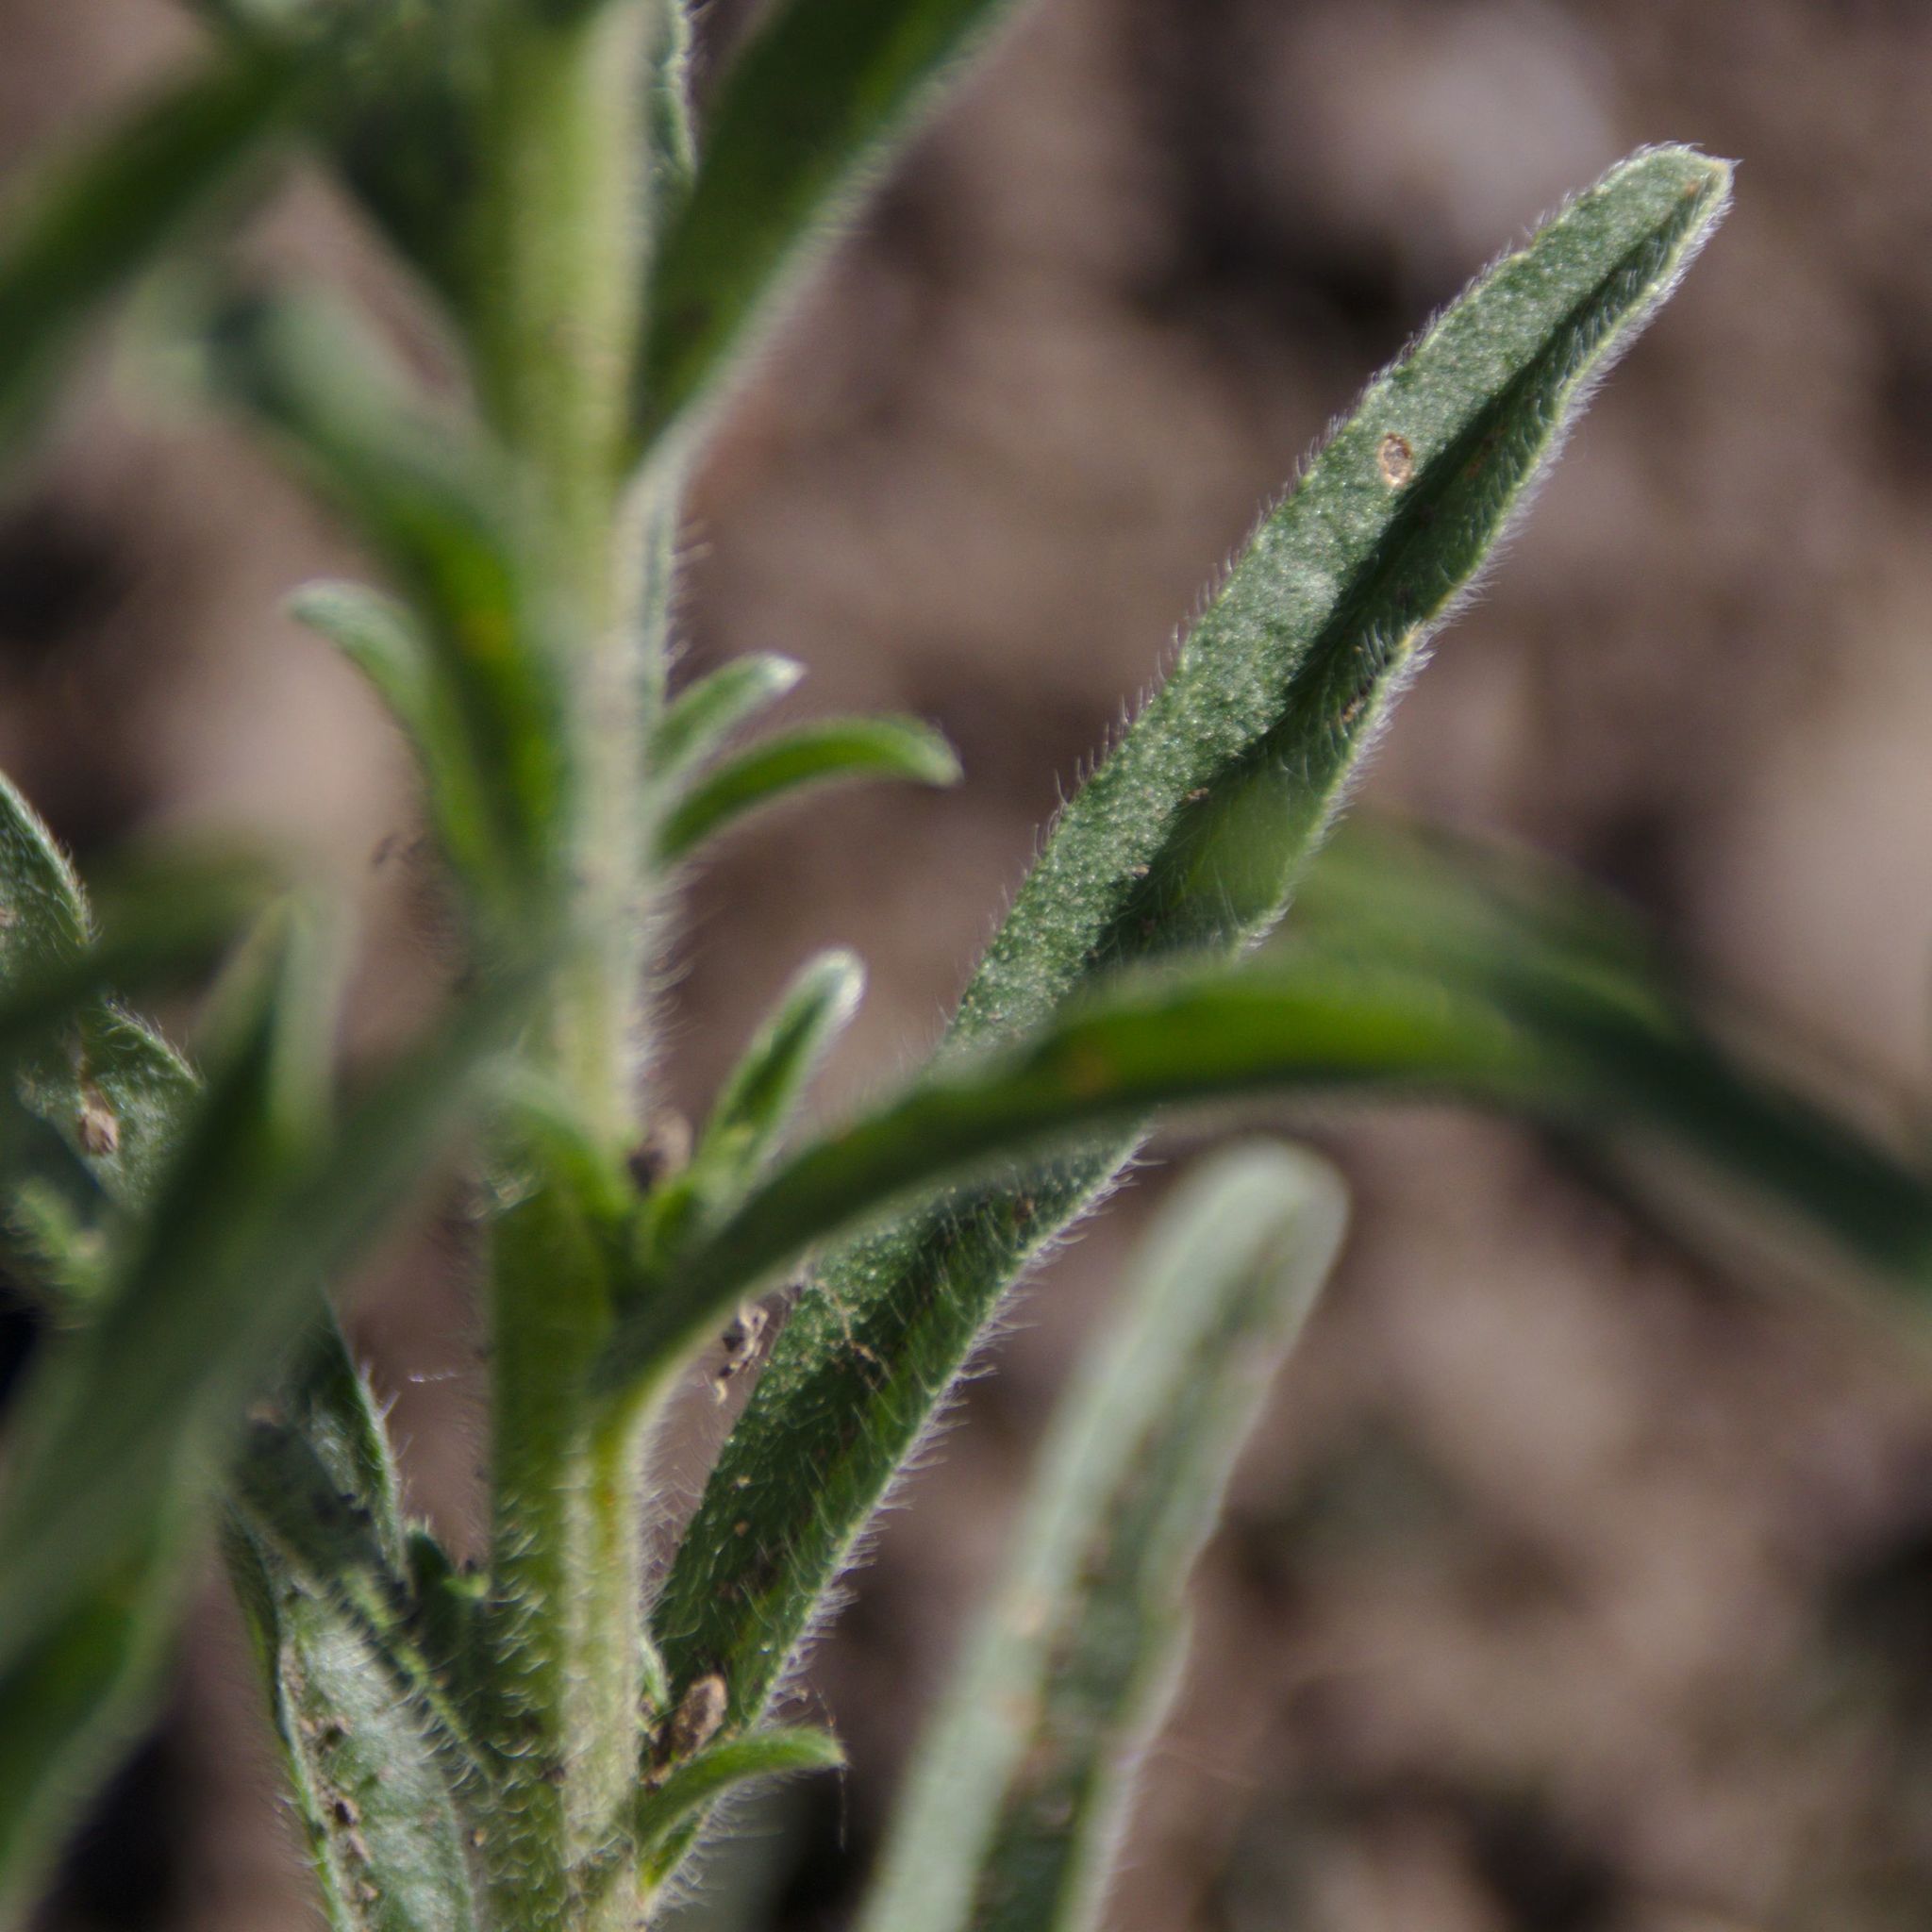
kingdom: Plantae
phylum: Tracheophyta
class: Magnoliopsida
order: Boraginales
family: Boraginaceae
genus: Lappula
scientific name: Lappula squarrosa
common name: European stickseed
